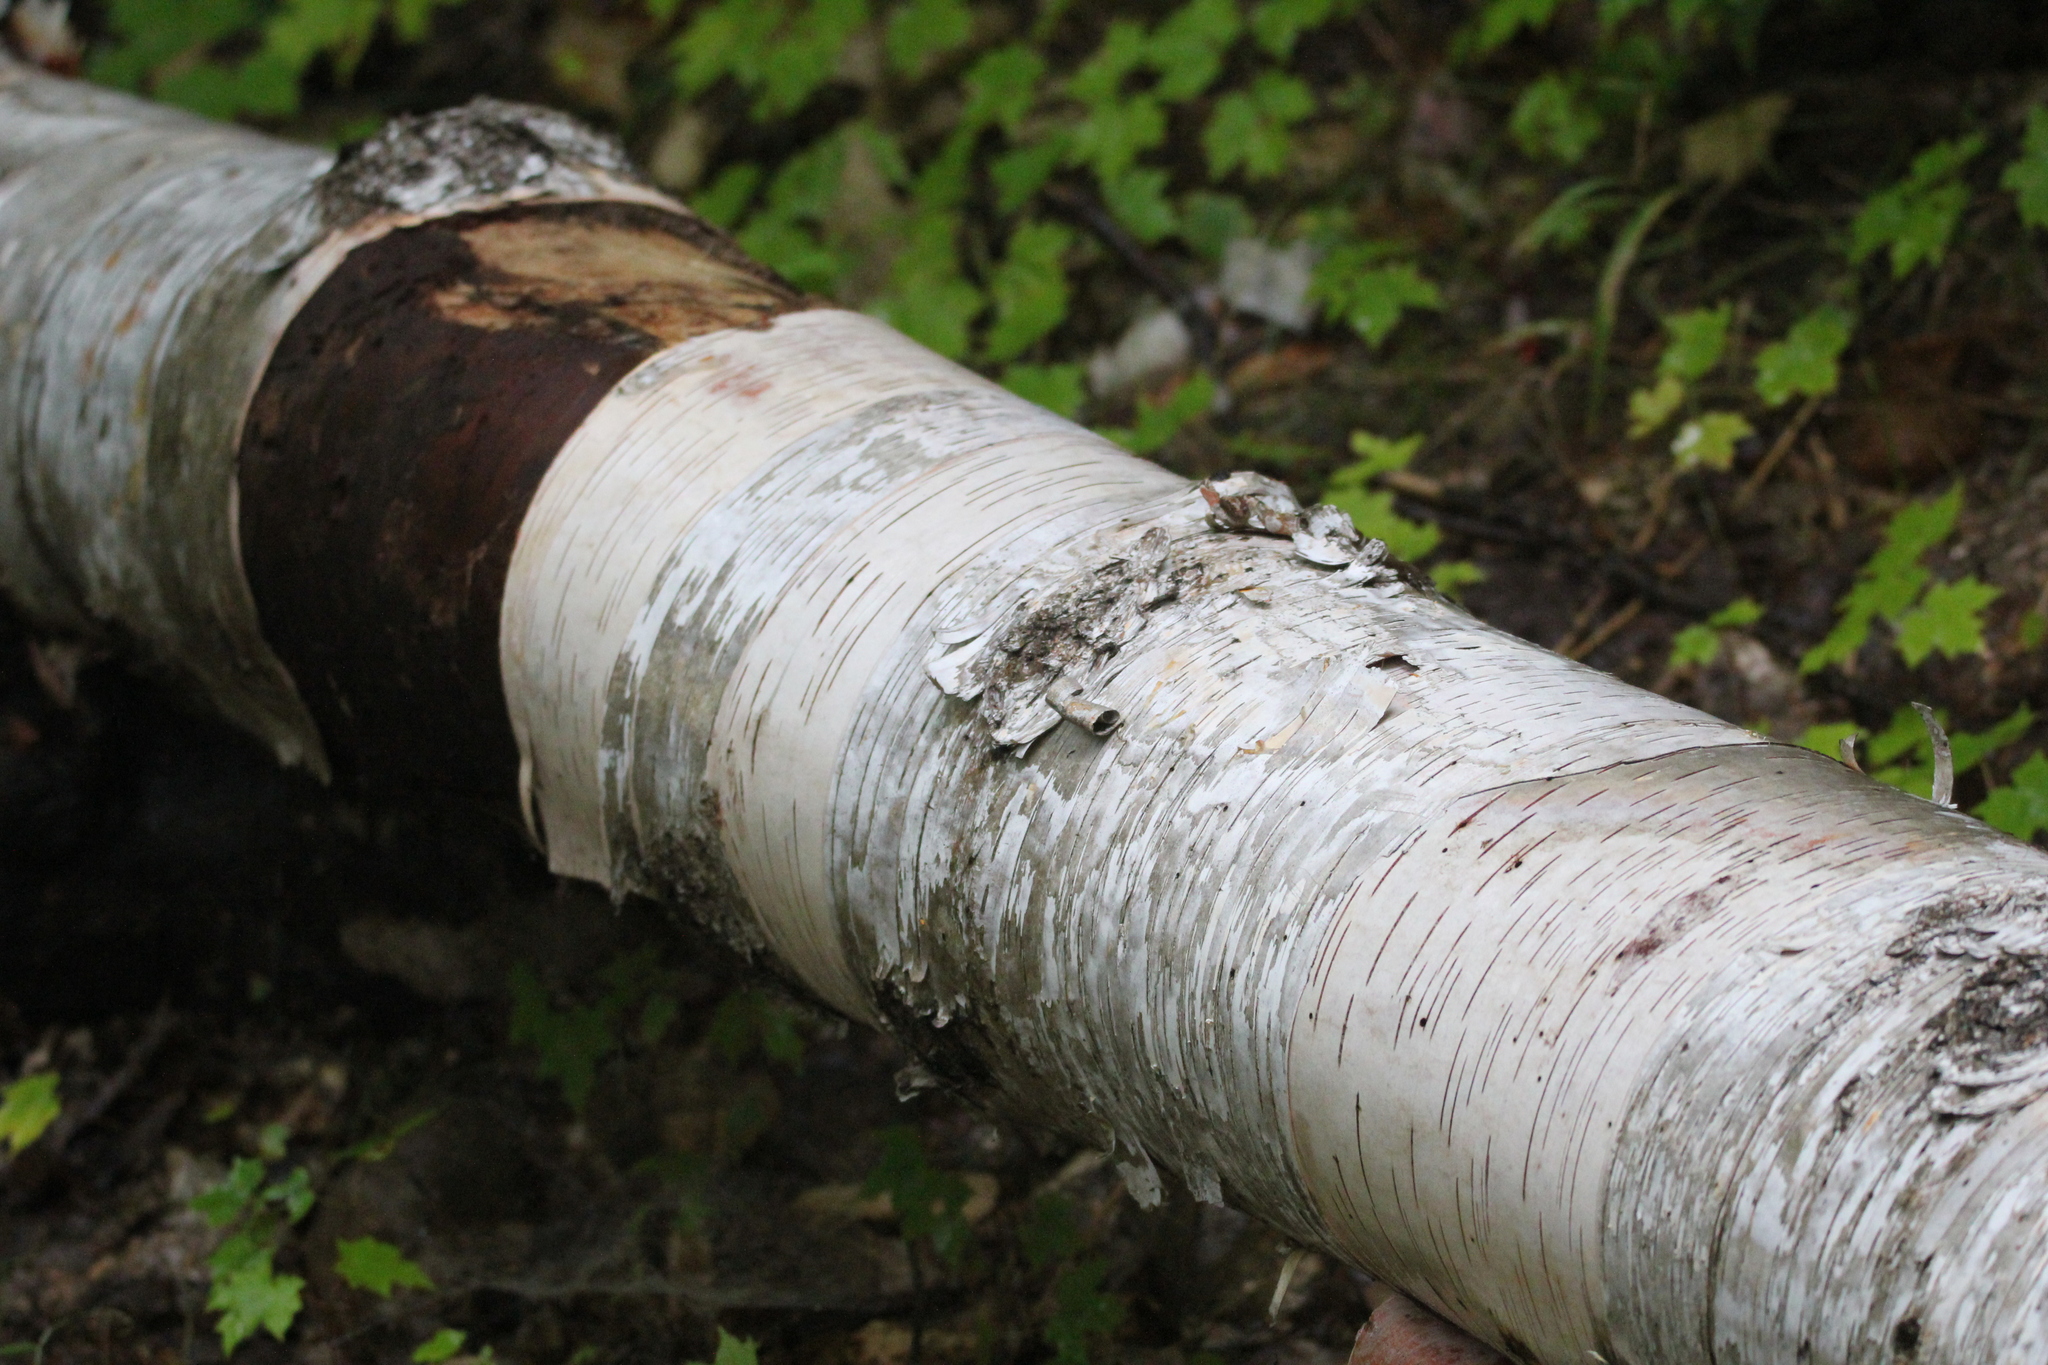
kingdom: Plantae
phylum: Tracheophyta
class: Magnoliopsida
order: Fagales
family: Betulaceae
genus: Betula
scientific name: Betula papyrifera
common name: Paper birch
